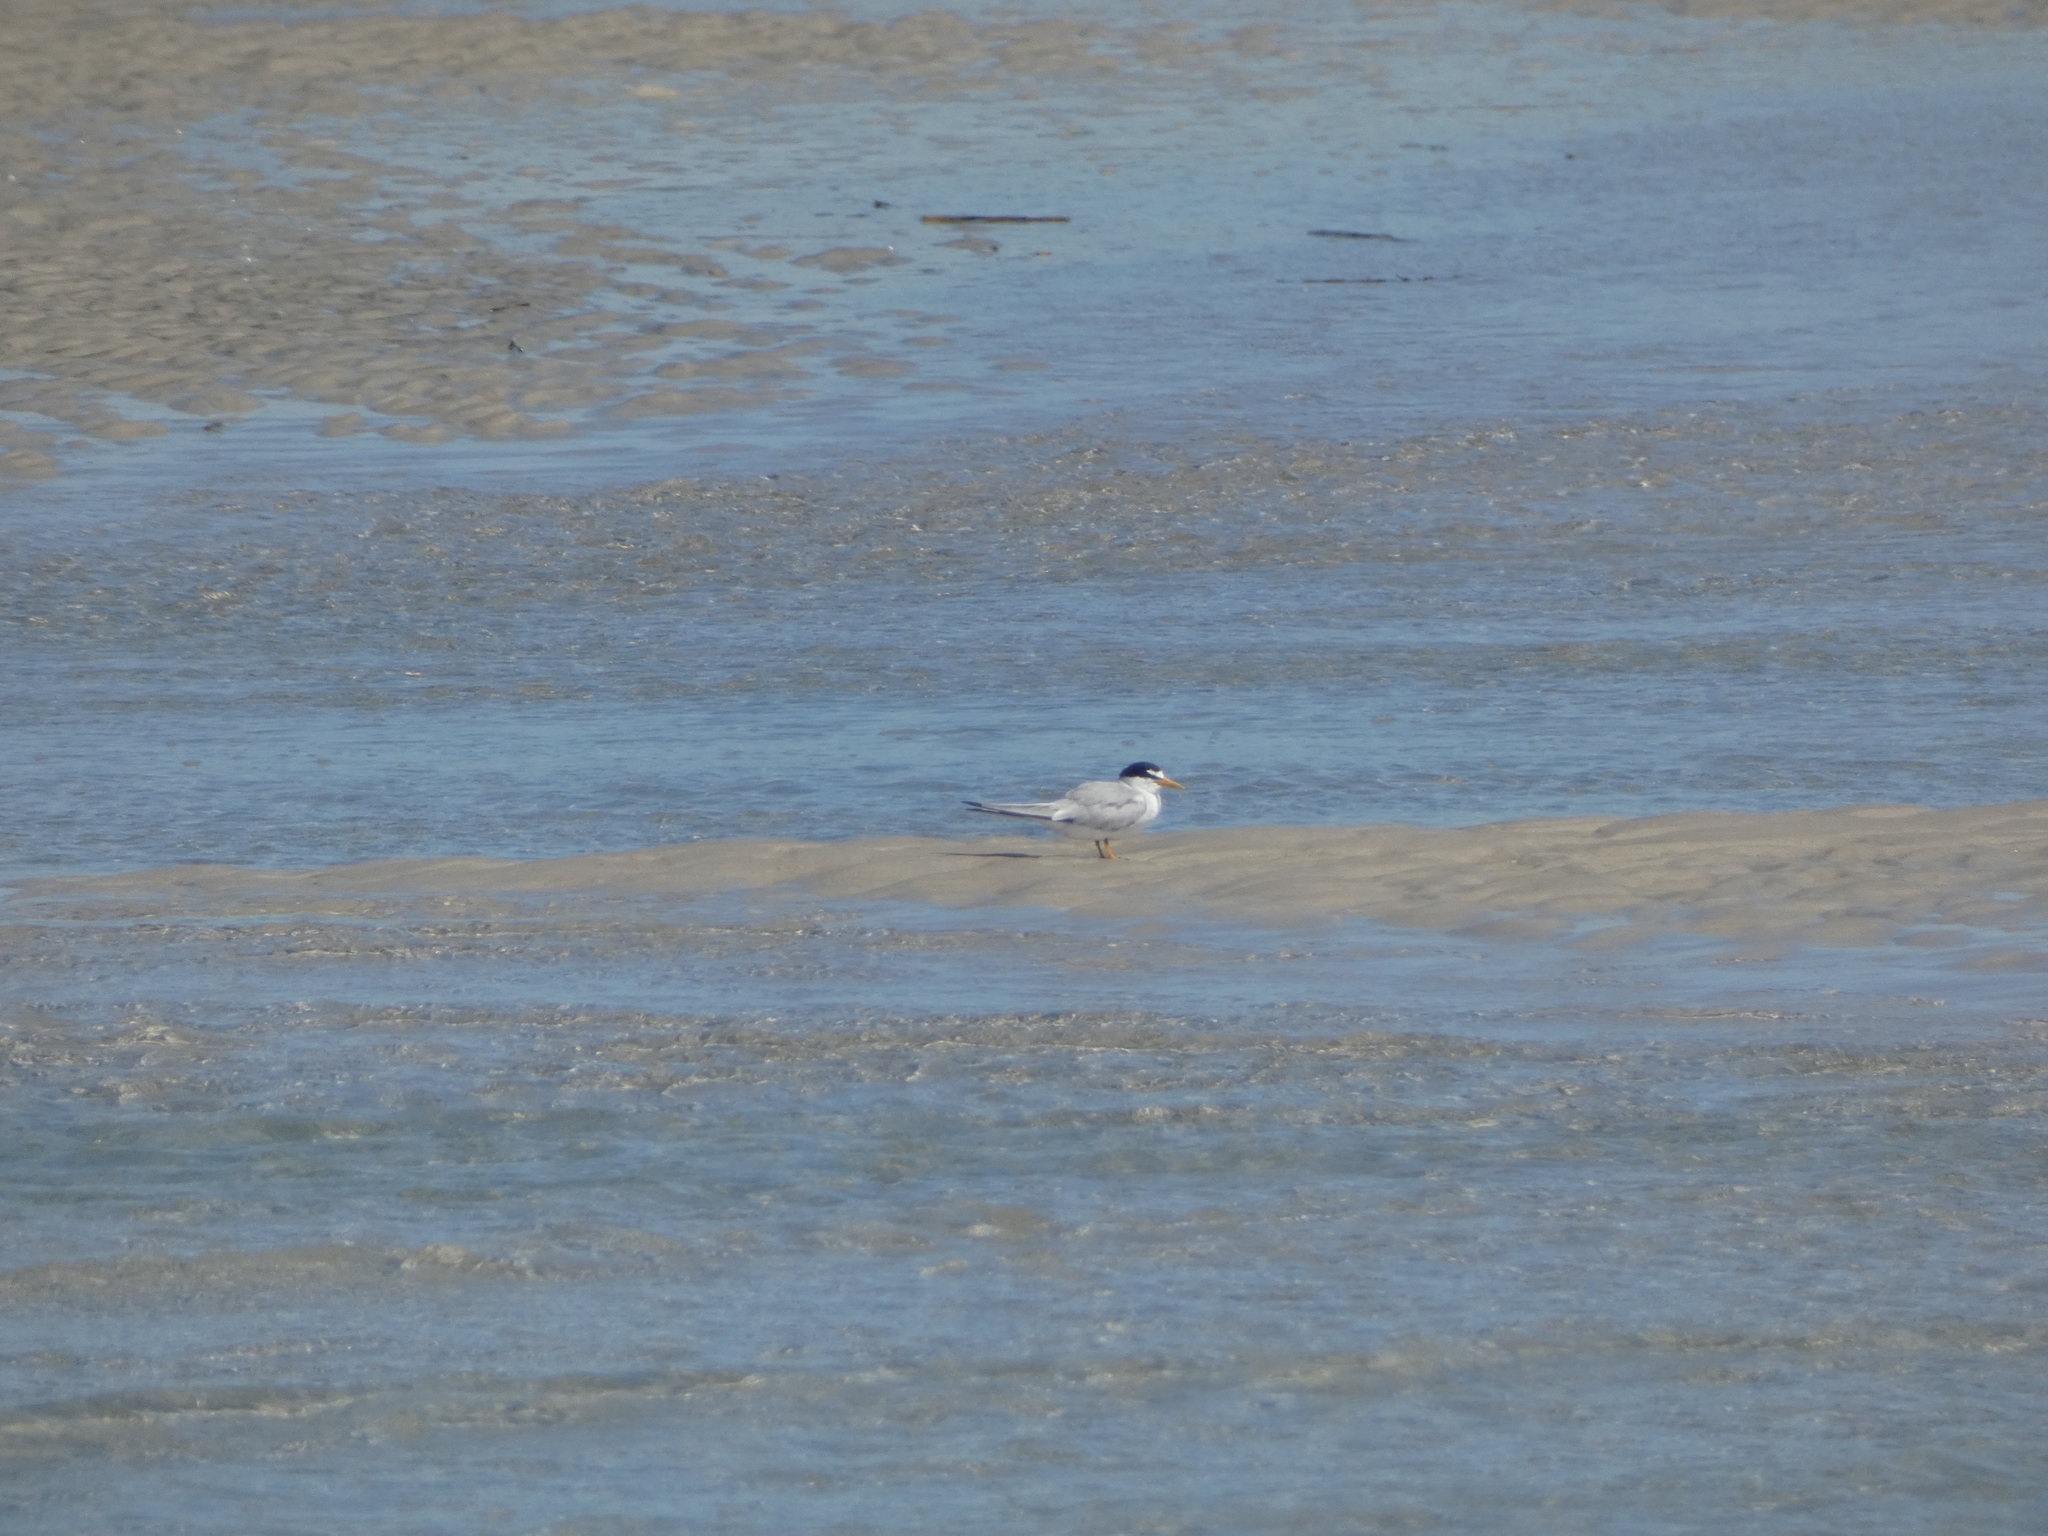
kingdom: Animalia
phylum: Chordata
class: Aves
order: Charadriiformes
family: Laridae
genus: Sternula
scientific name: Sternula antillarum
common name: Least tern
